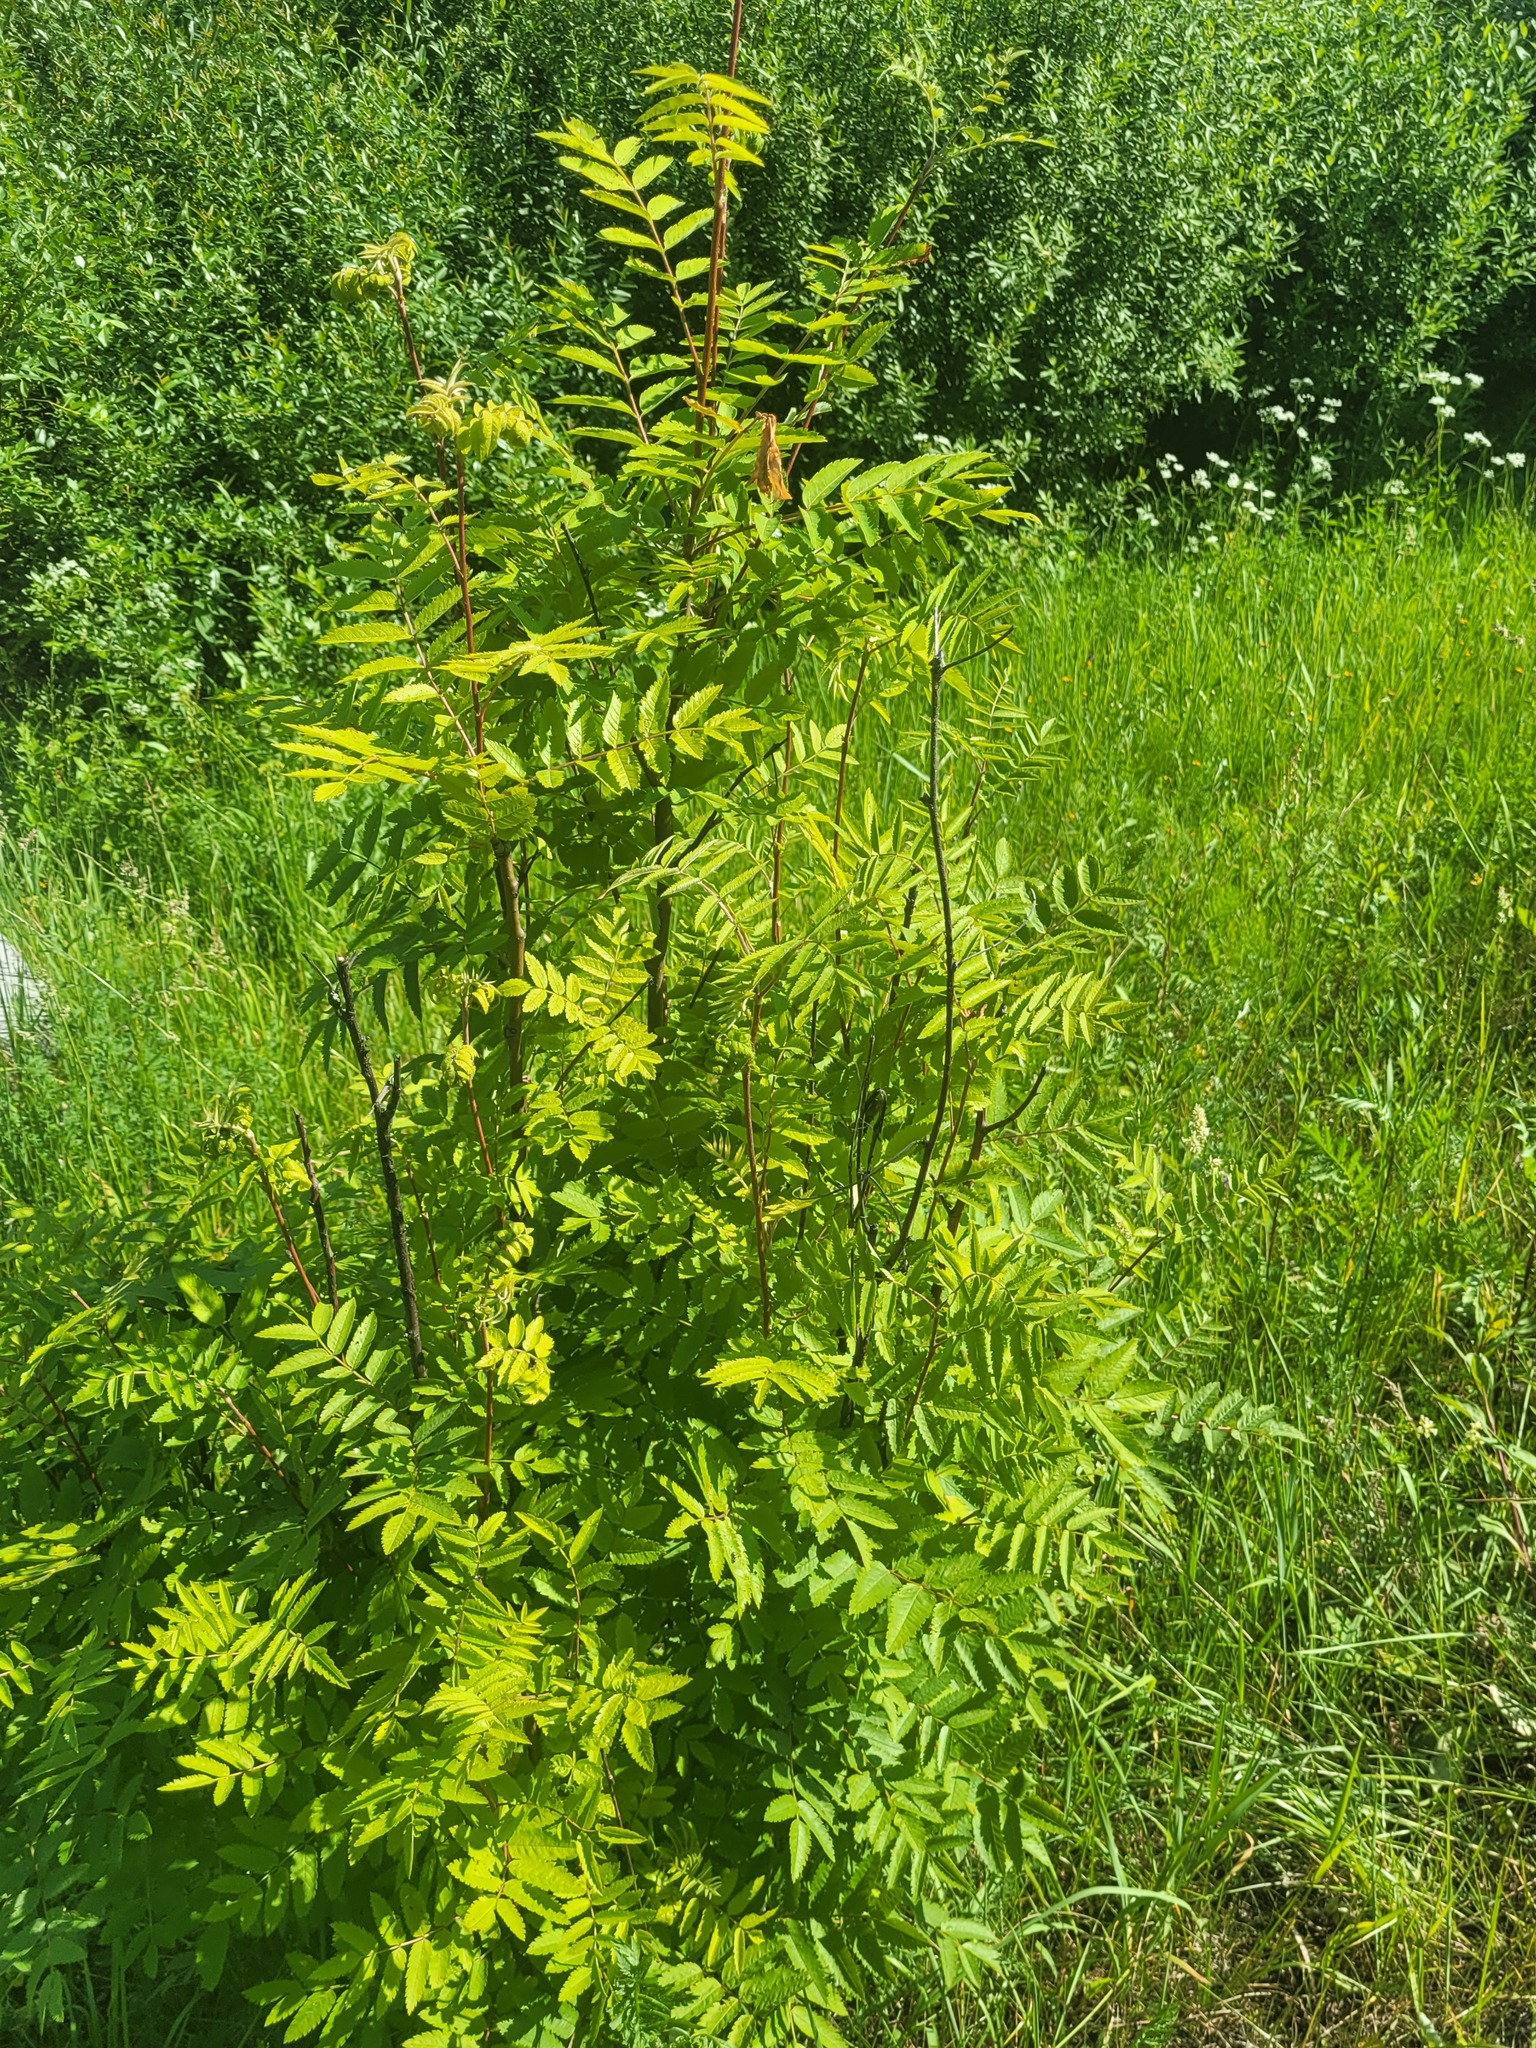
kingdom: Plantae
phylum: Tracheophyta
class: Magnoliopsida
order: Rosales
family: Rosaceae
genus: Sorbus
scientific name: Sorbus aucuparia
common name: Rowan
